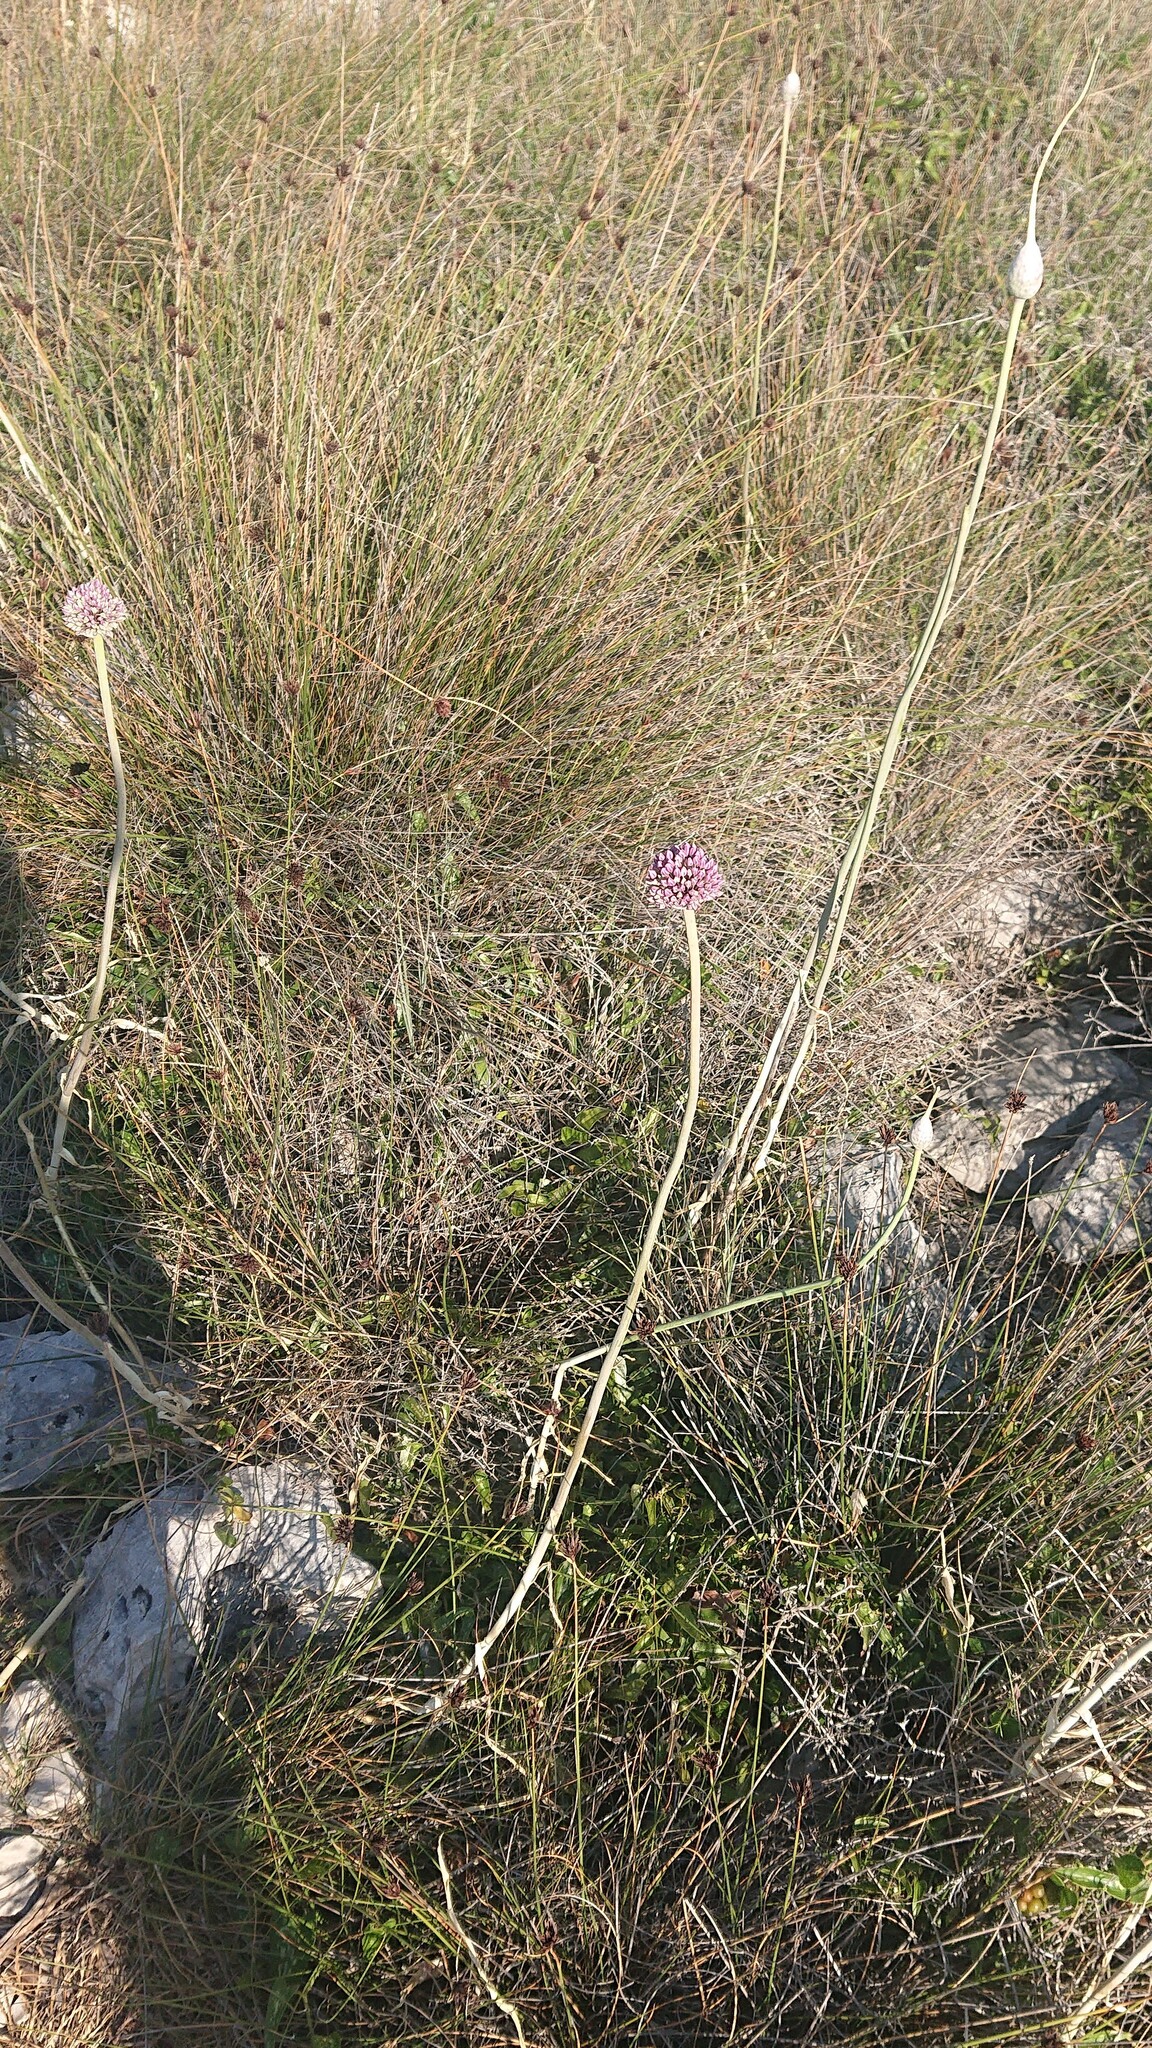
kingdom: Plantae
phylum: Tracheophyta
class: Liliopsida
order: Asparagales
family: Amaryllidaceae
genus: Allium
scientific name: Allium commutatum
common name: Sea garlic
